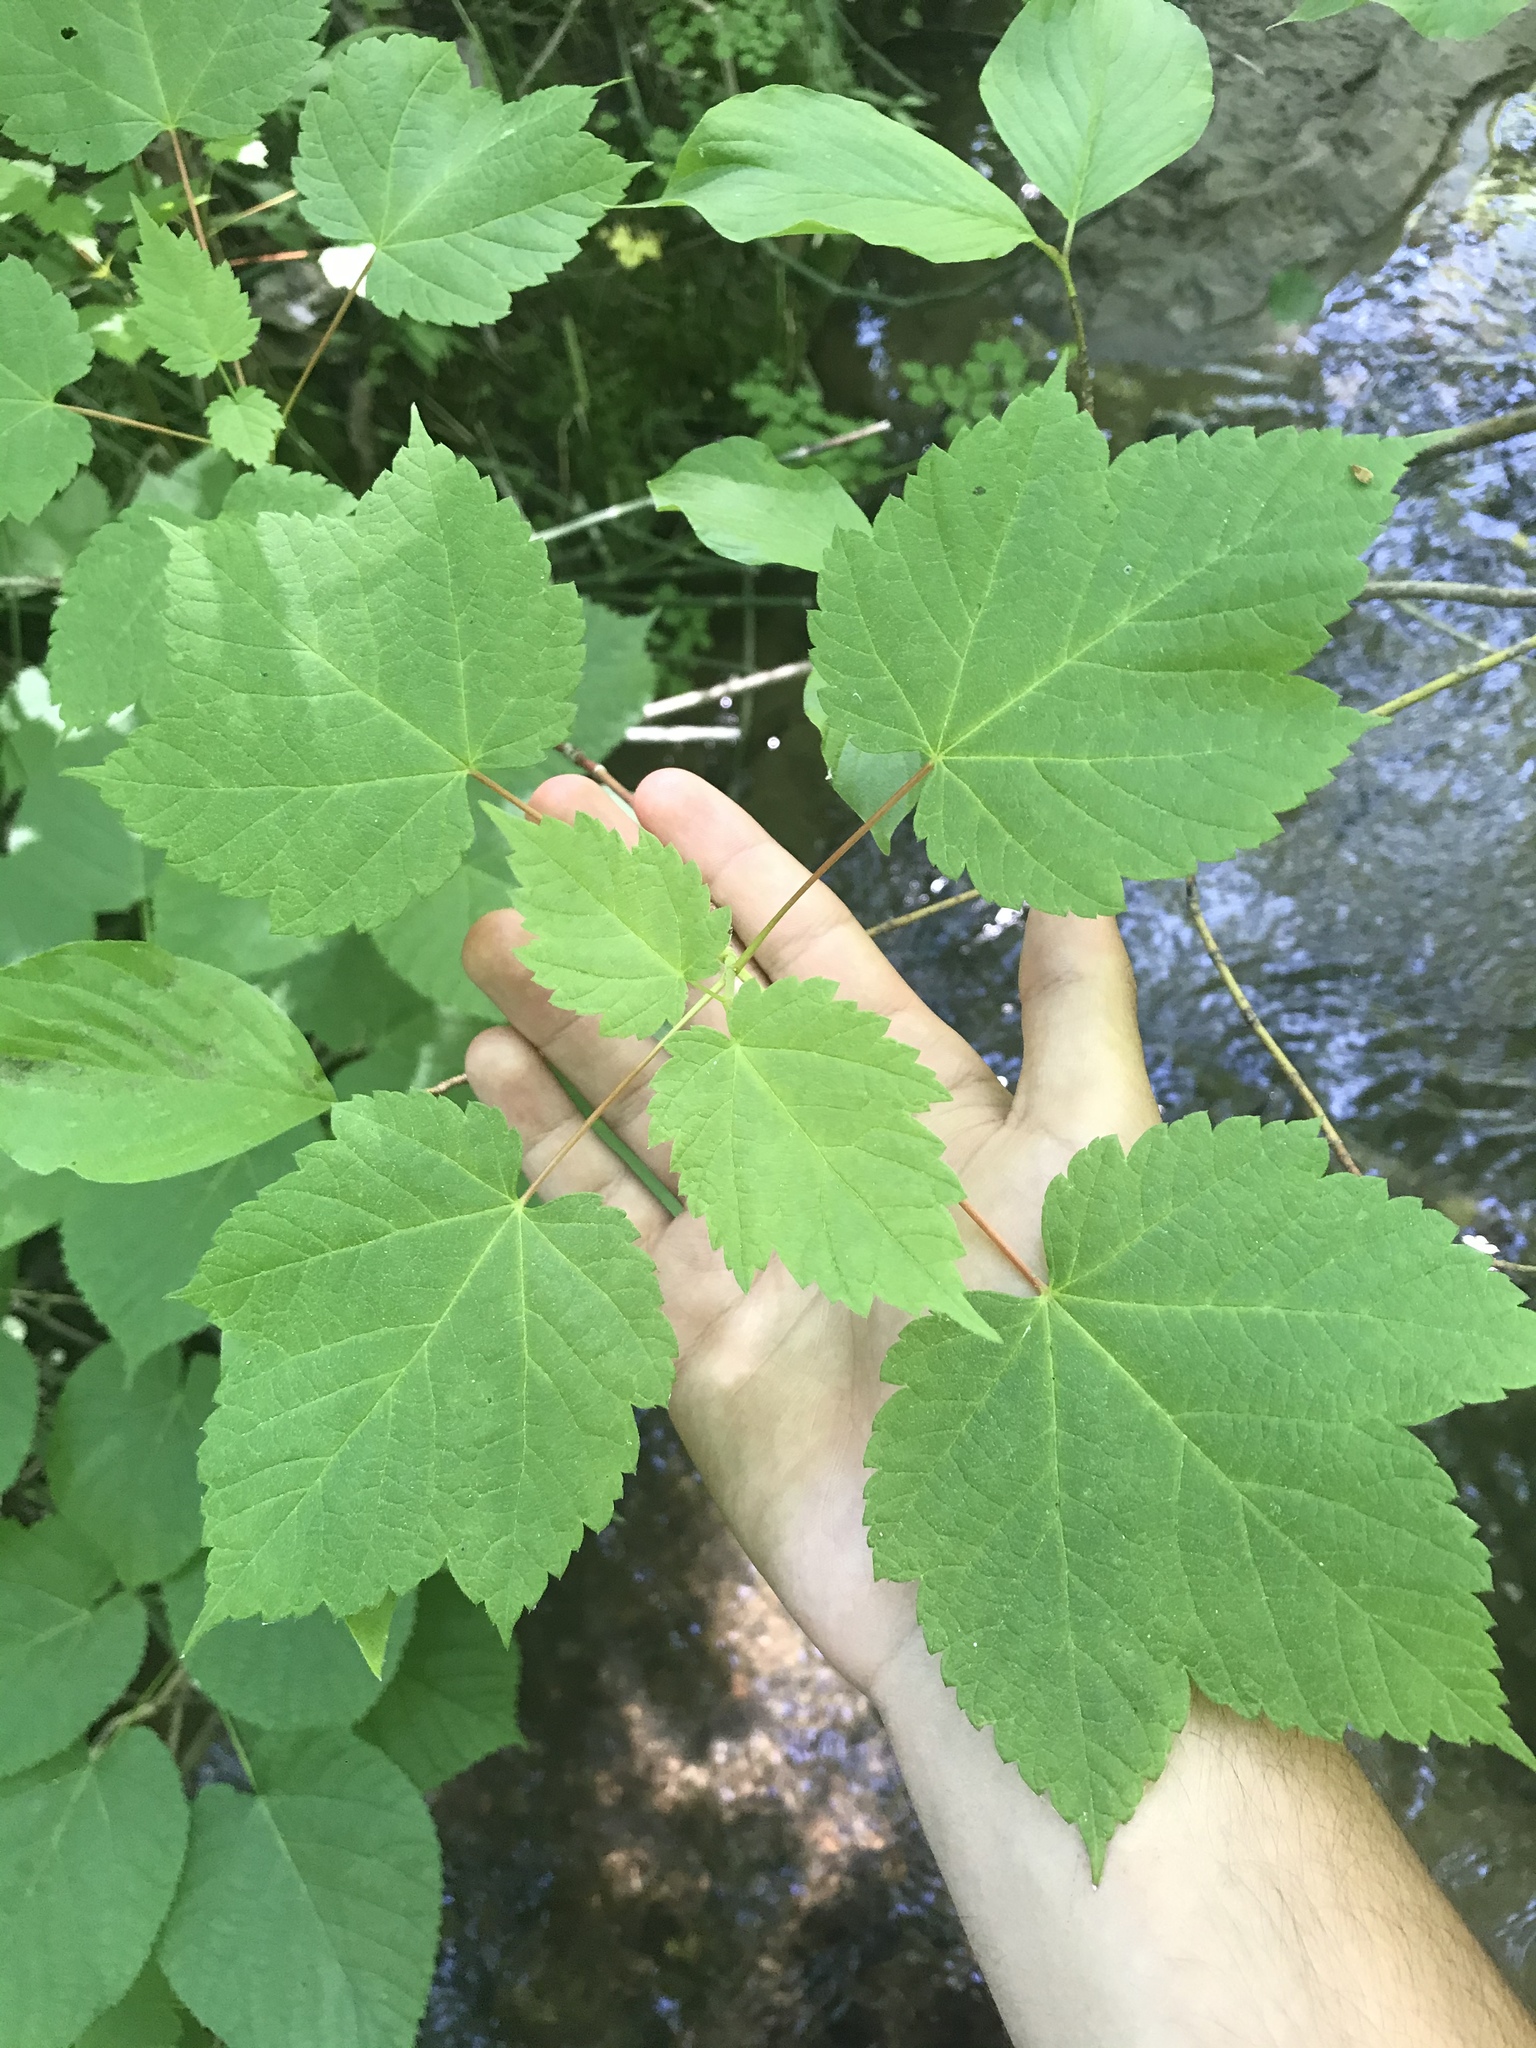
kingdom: Plantae
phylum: Tracheophyta
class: Magnoliopsida
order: Sapindales
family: Sapindaceae
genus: Acer
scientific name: Acer spicatum
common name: Mountain maple
